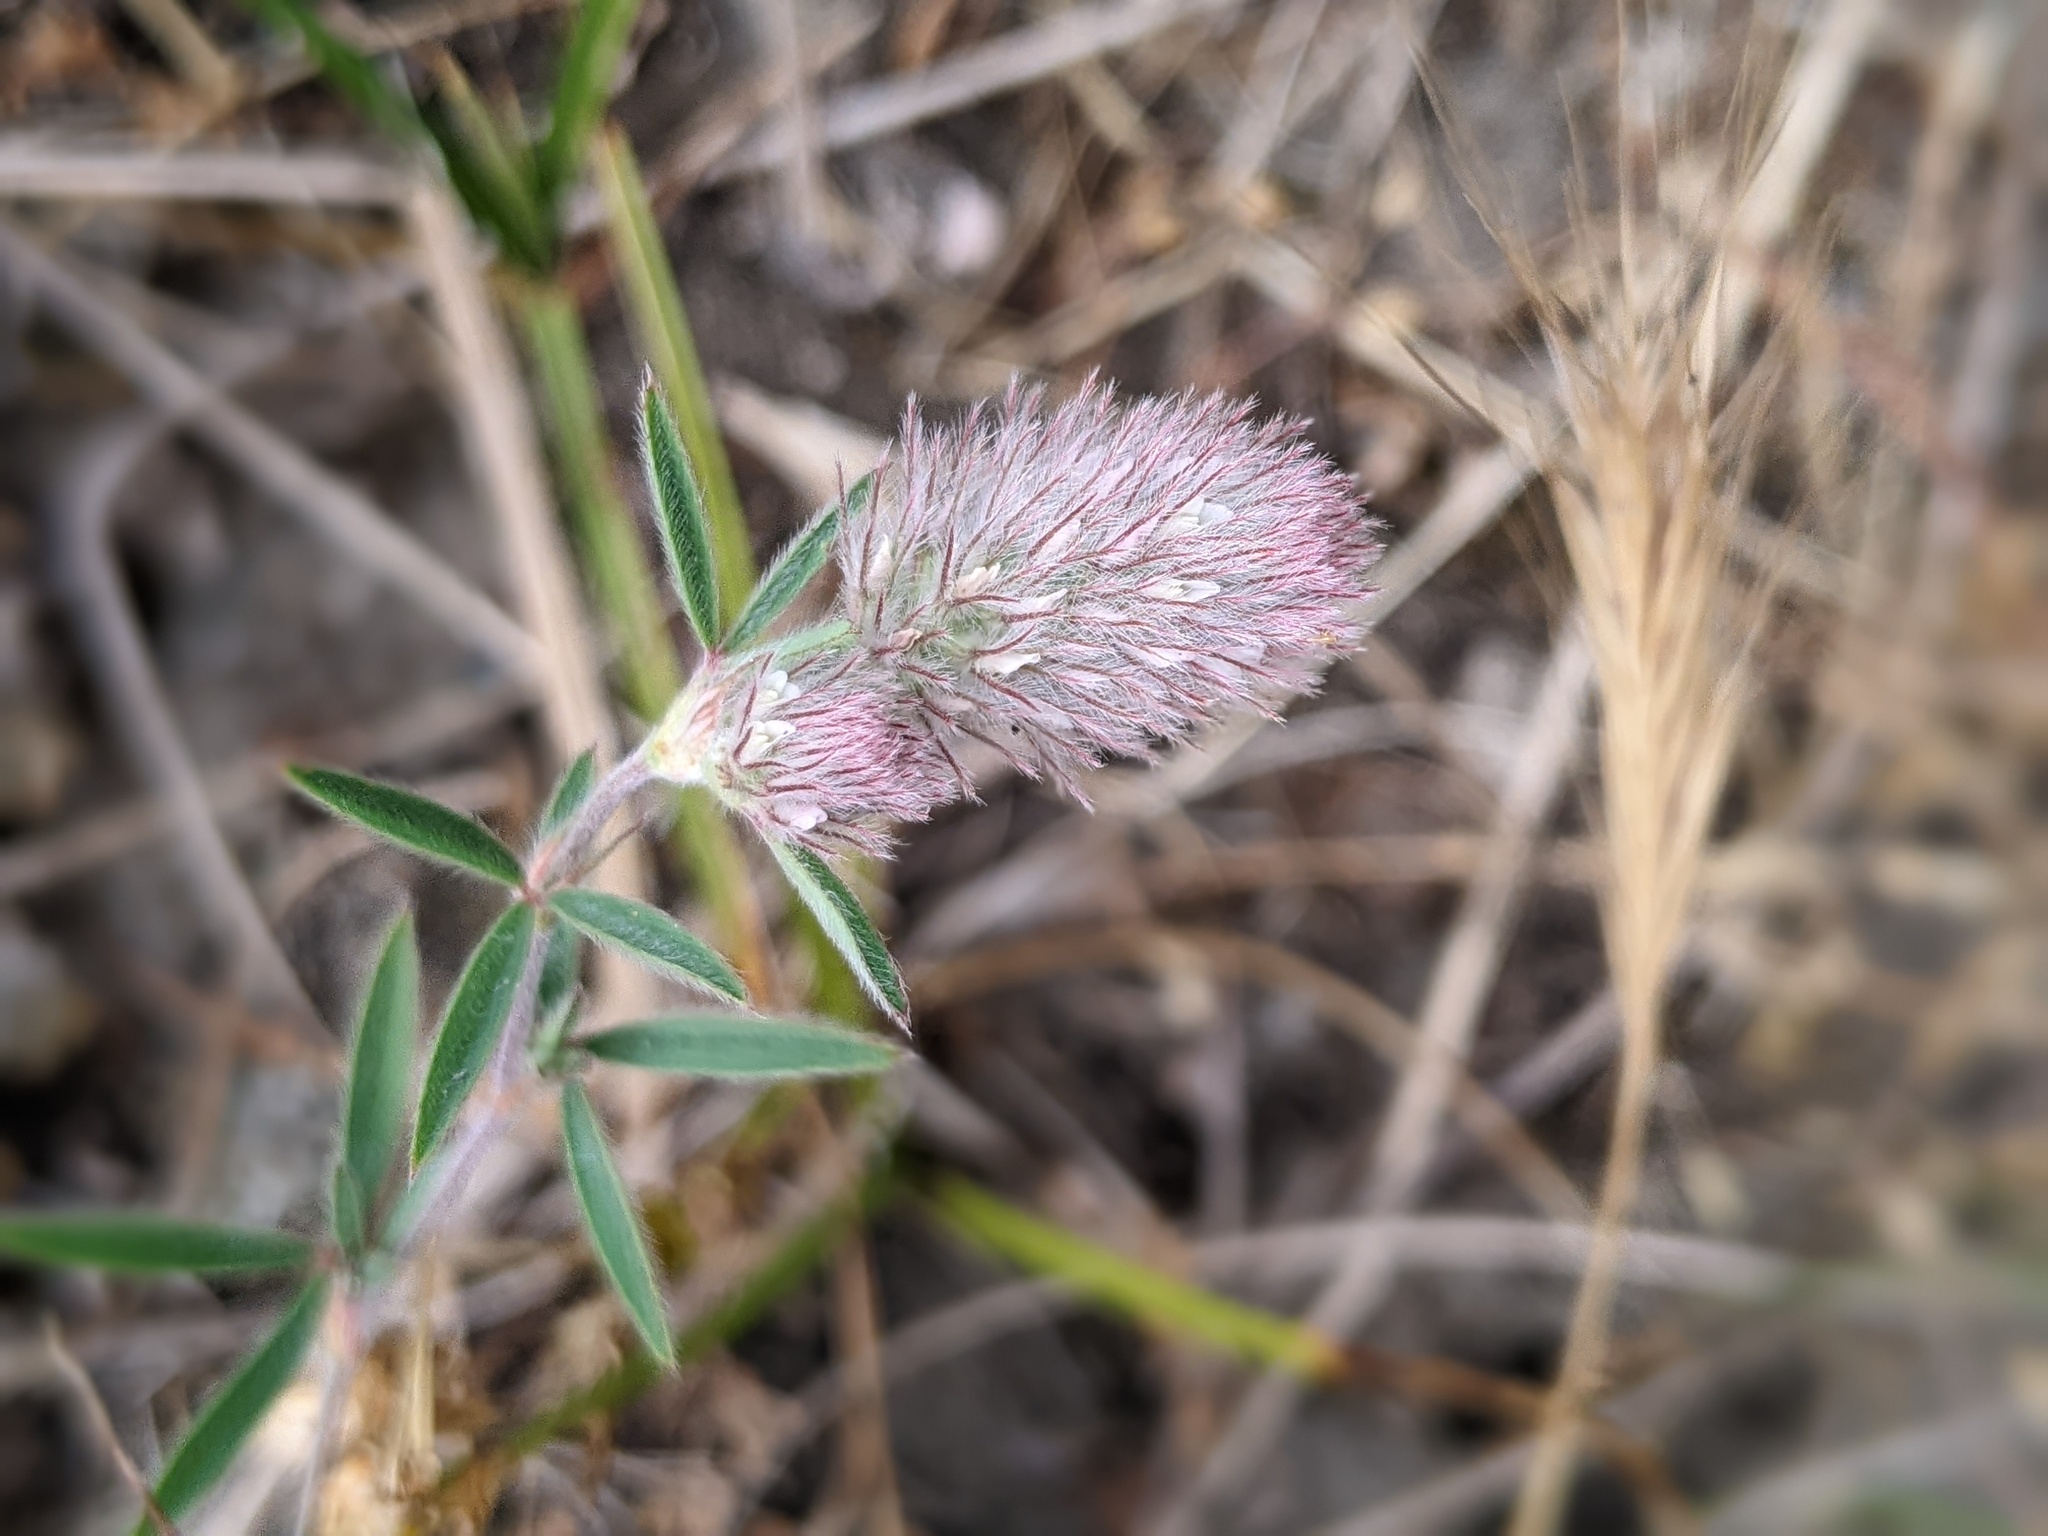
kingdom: Plantae
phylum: Tracheophyta
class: Magnoliopsida
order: Fabales
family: Fabaceae
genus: Trifolium
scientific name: Trifolium arvense
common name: Hare's-foot clover
